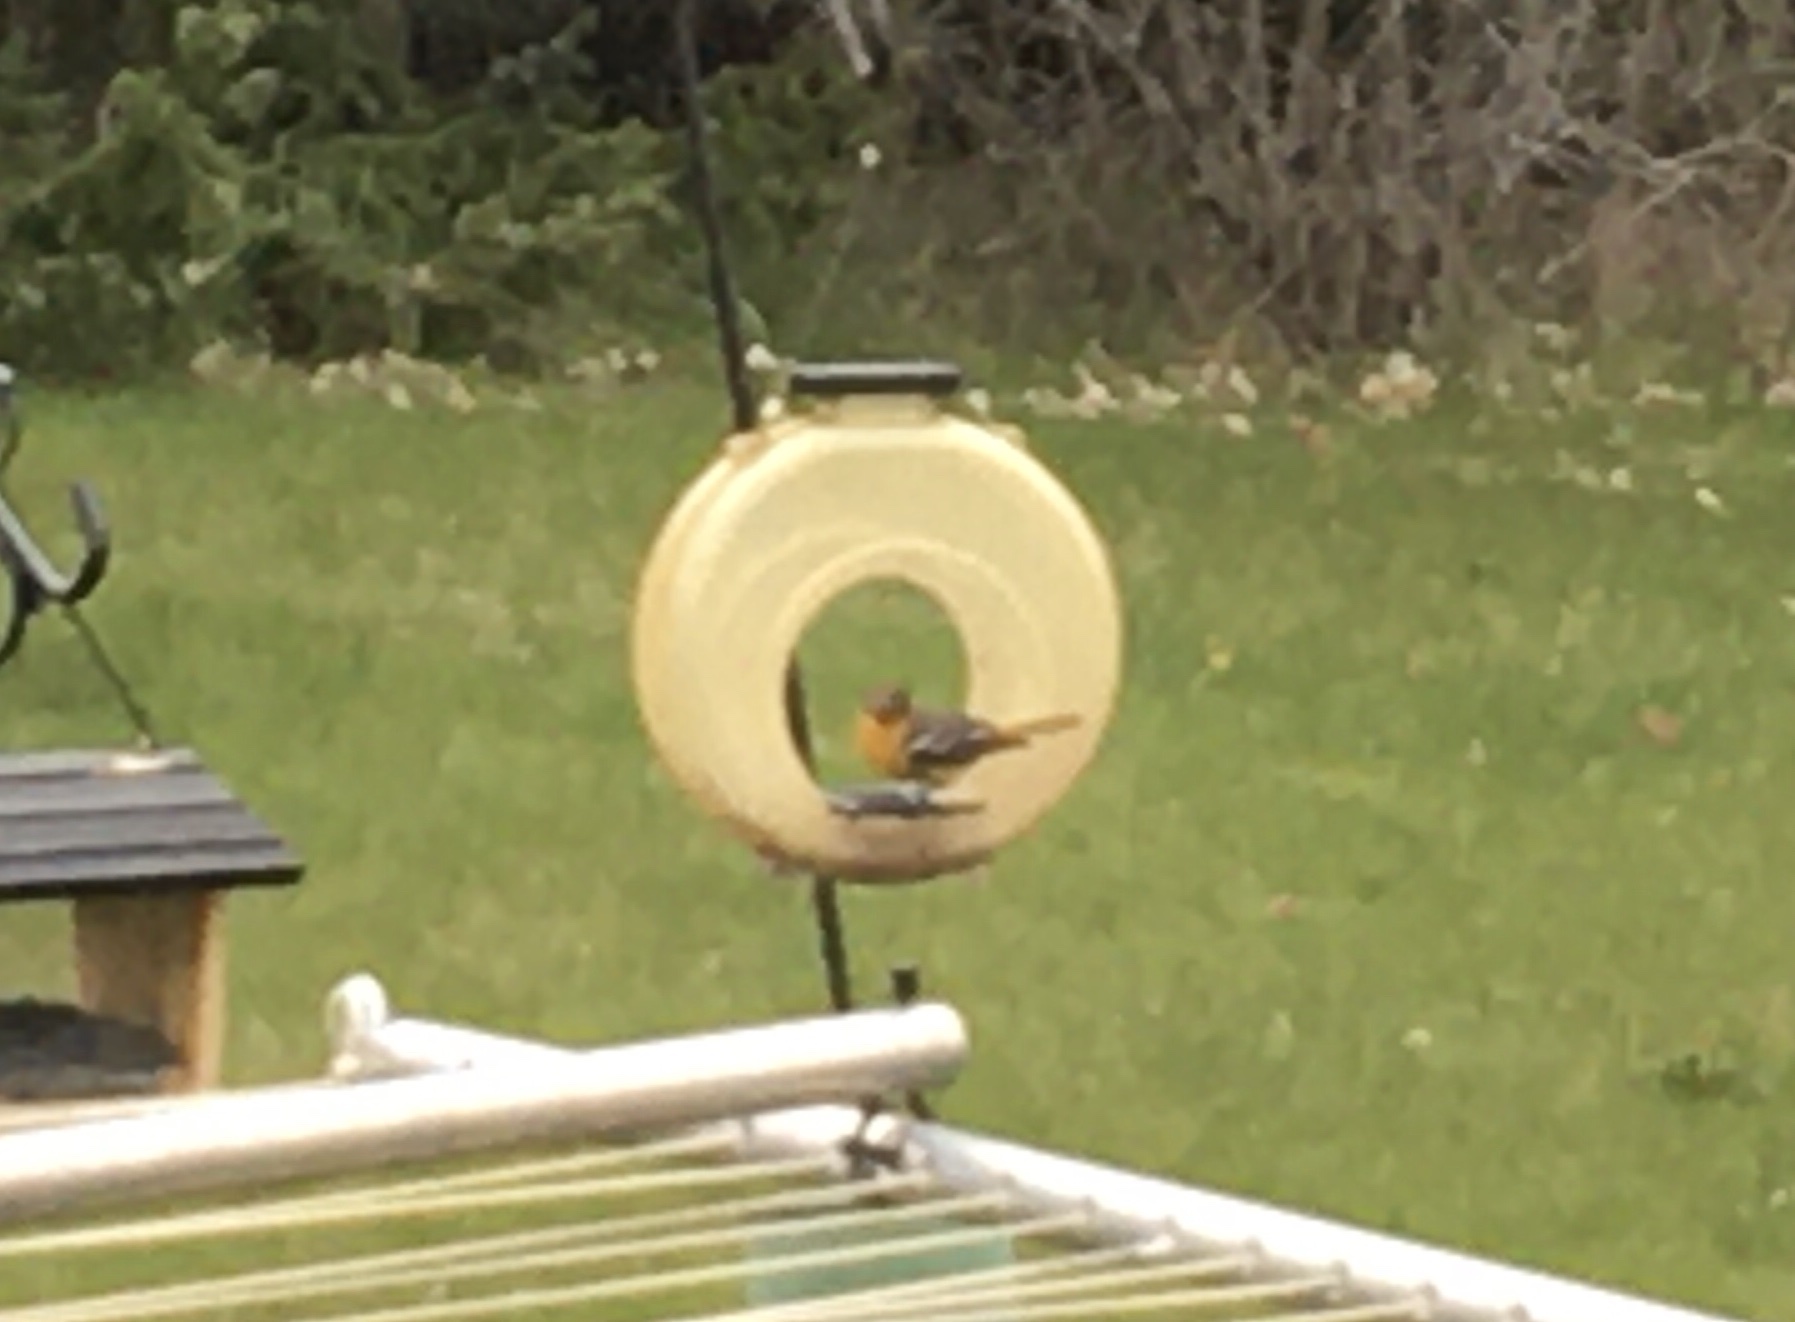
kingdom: Animalia
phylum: Chordata
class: Aves
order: Passeriformes
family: Icteridae
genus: Icterus
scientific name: Icterus galbula
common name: Baltimore oriole
